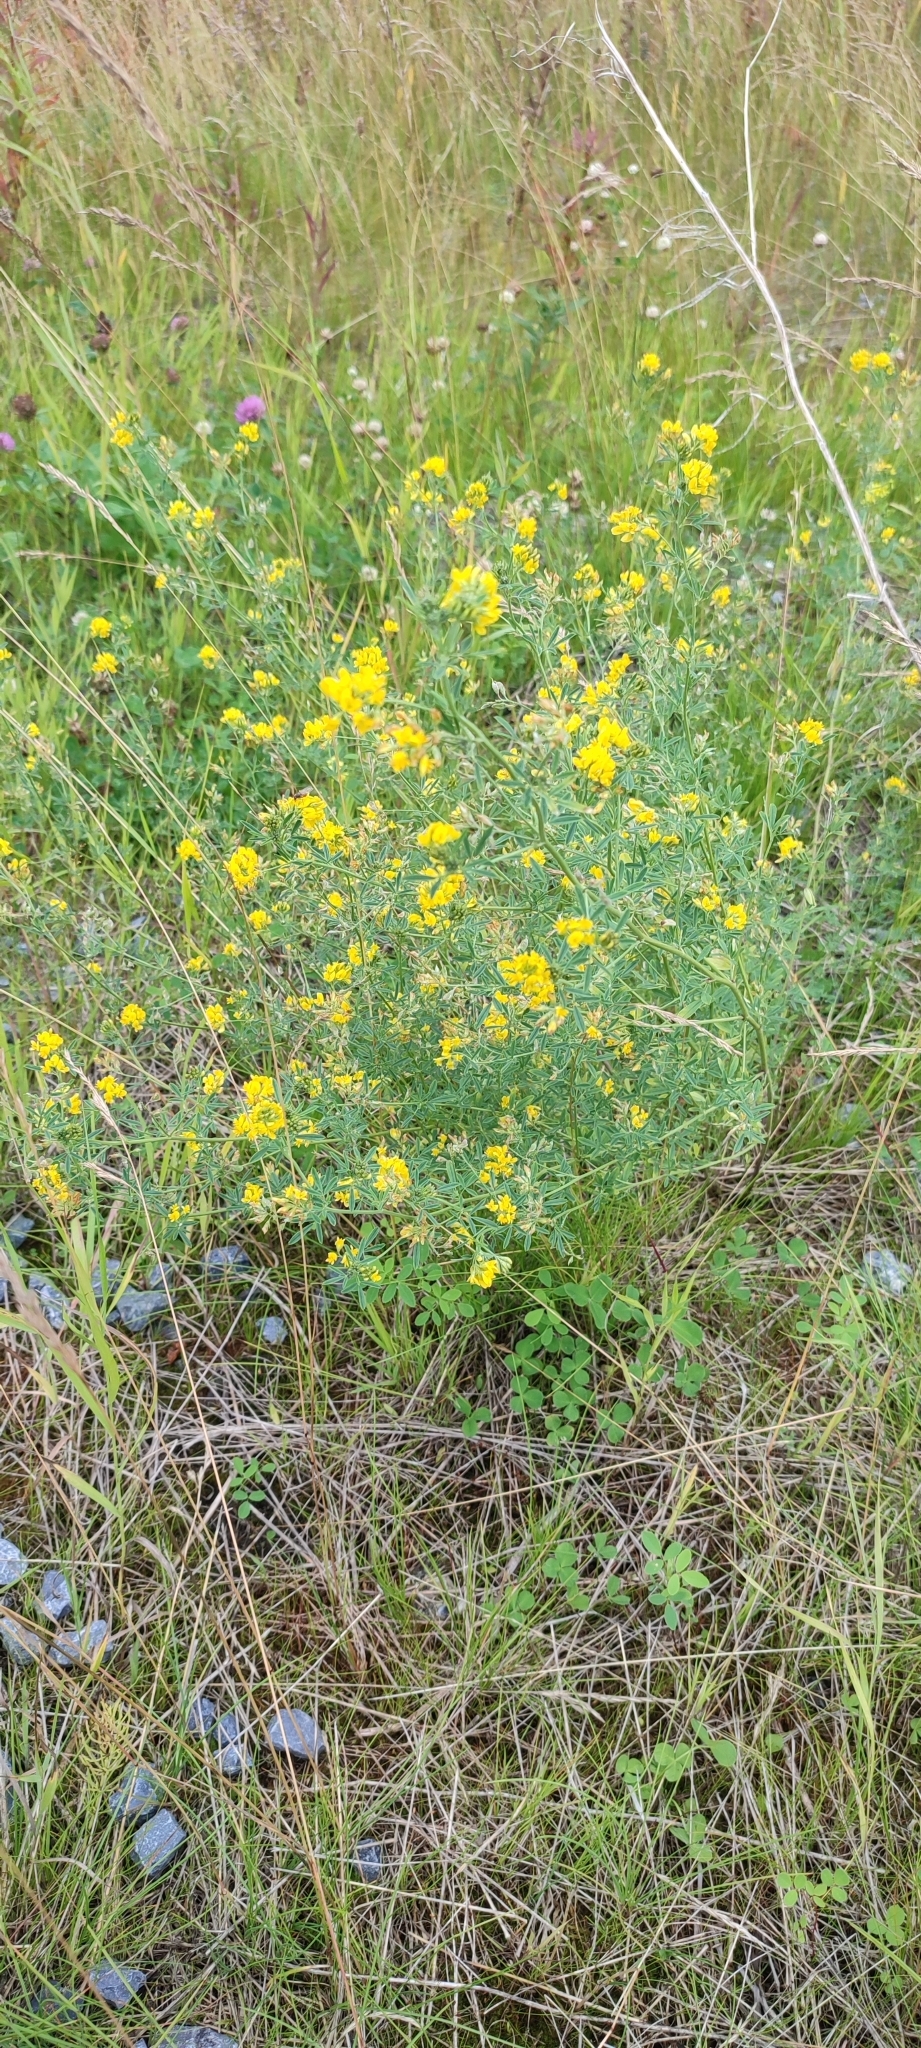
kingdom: Plantae
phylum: Tracheophyta
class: Magnoliopsida
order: Fabales
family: Fabaceae
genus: Medicago
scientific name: Medicago falcata
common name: Sickle medick
